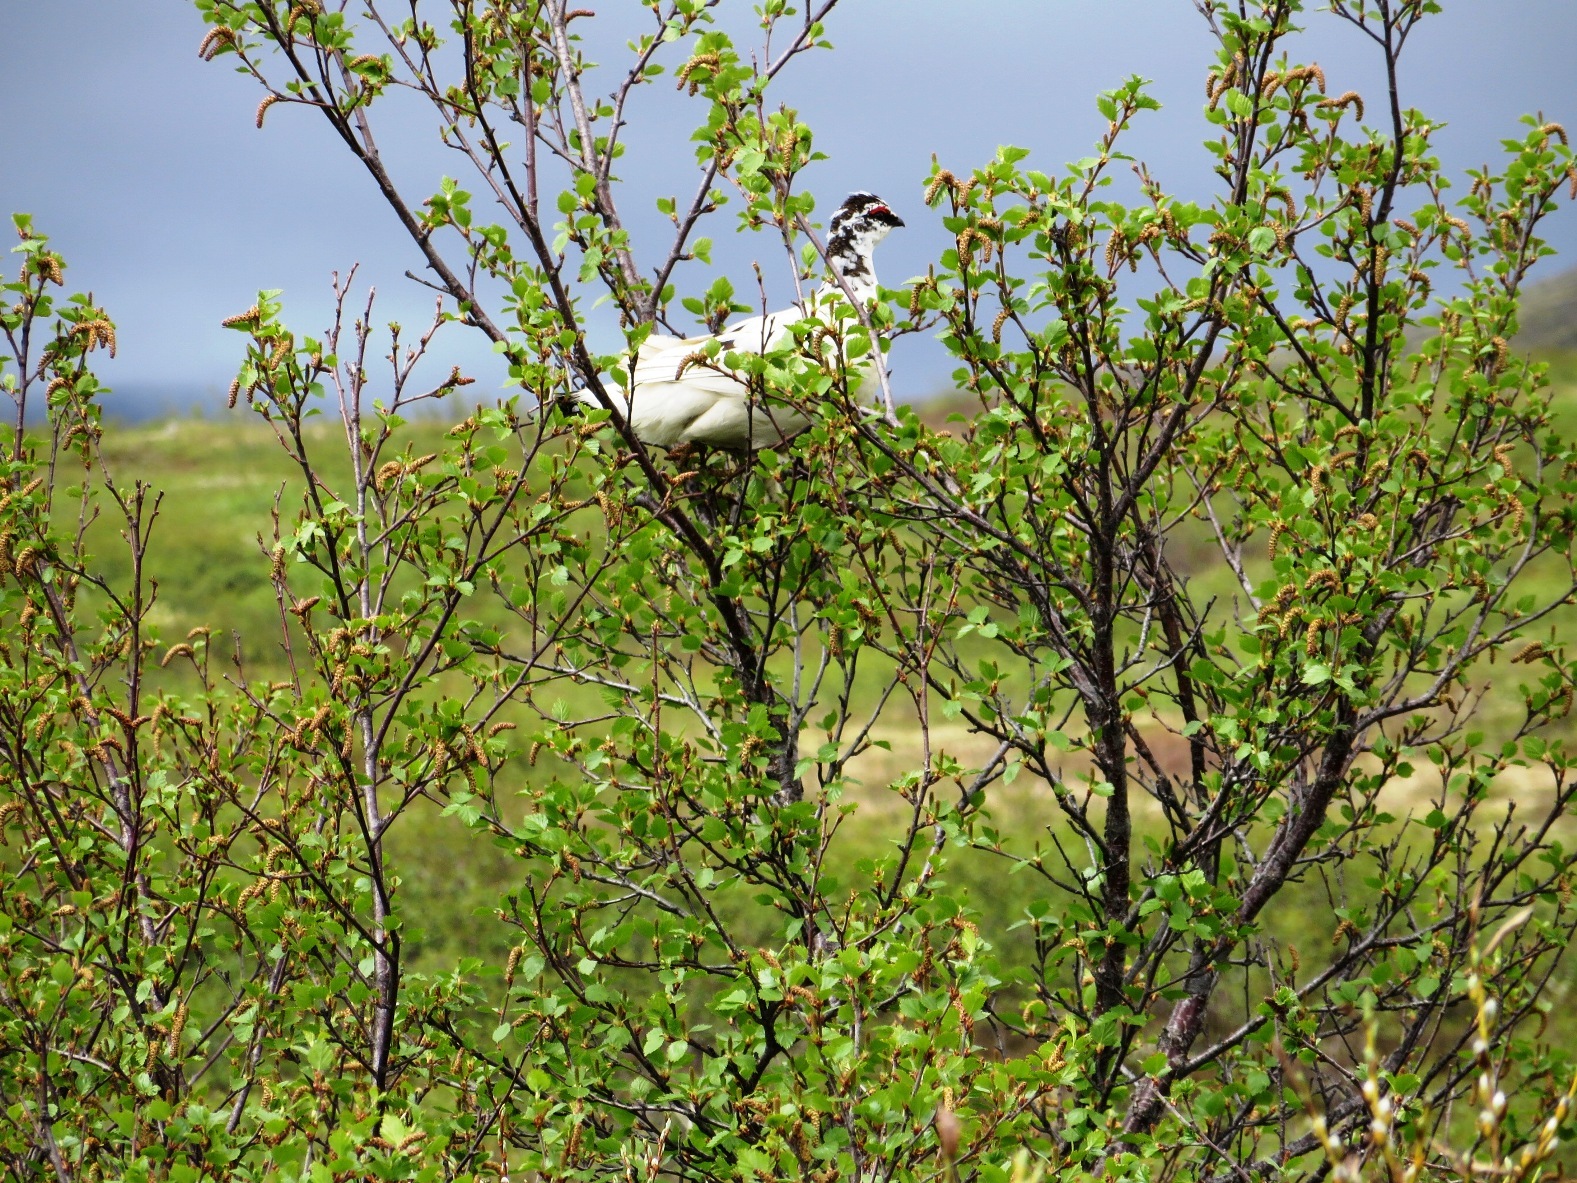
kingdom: Animalia
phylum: Chordata
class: Aves
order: Galliformes
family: Phasianidae
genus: Lagopus
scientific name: Lagopus muta
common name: Rock ptarmigan
